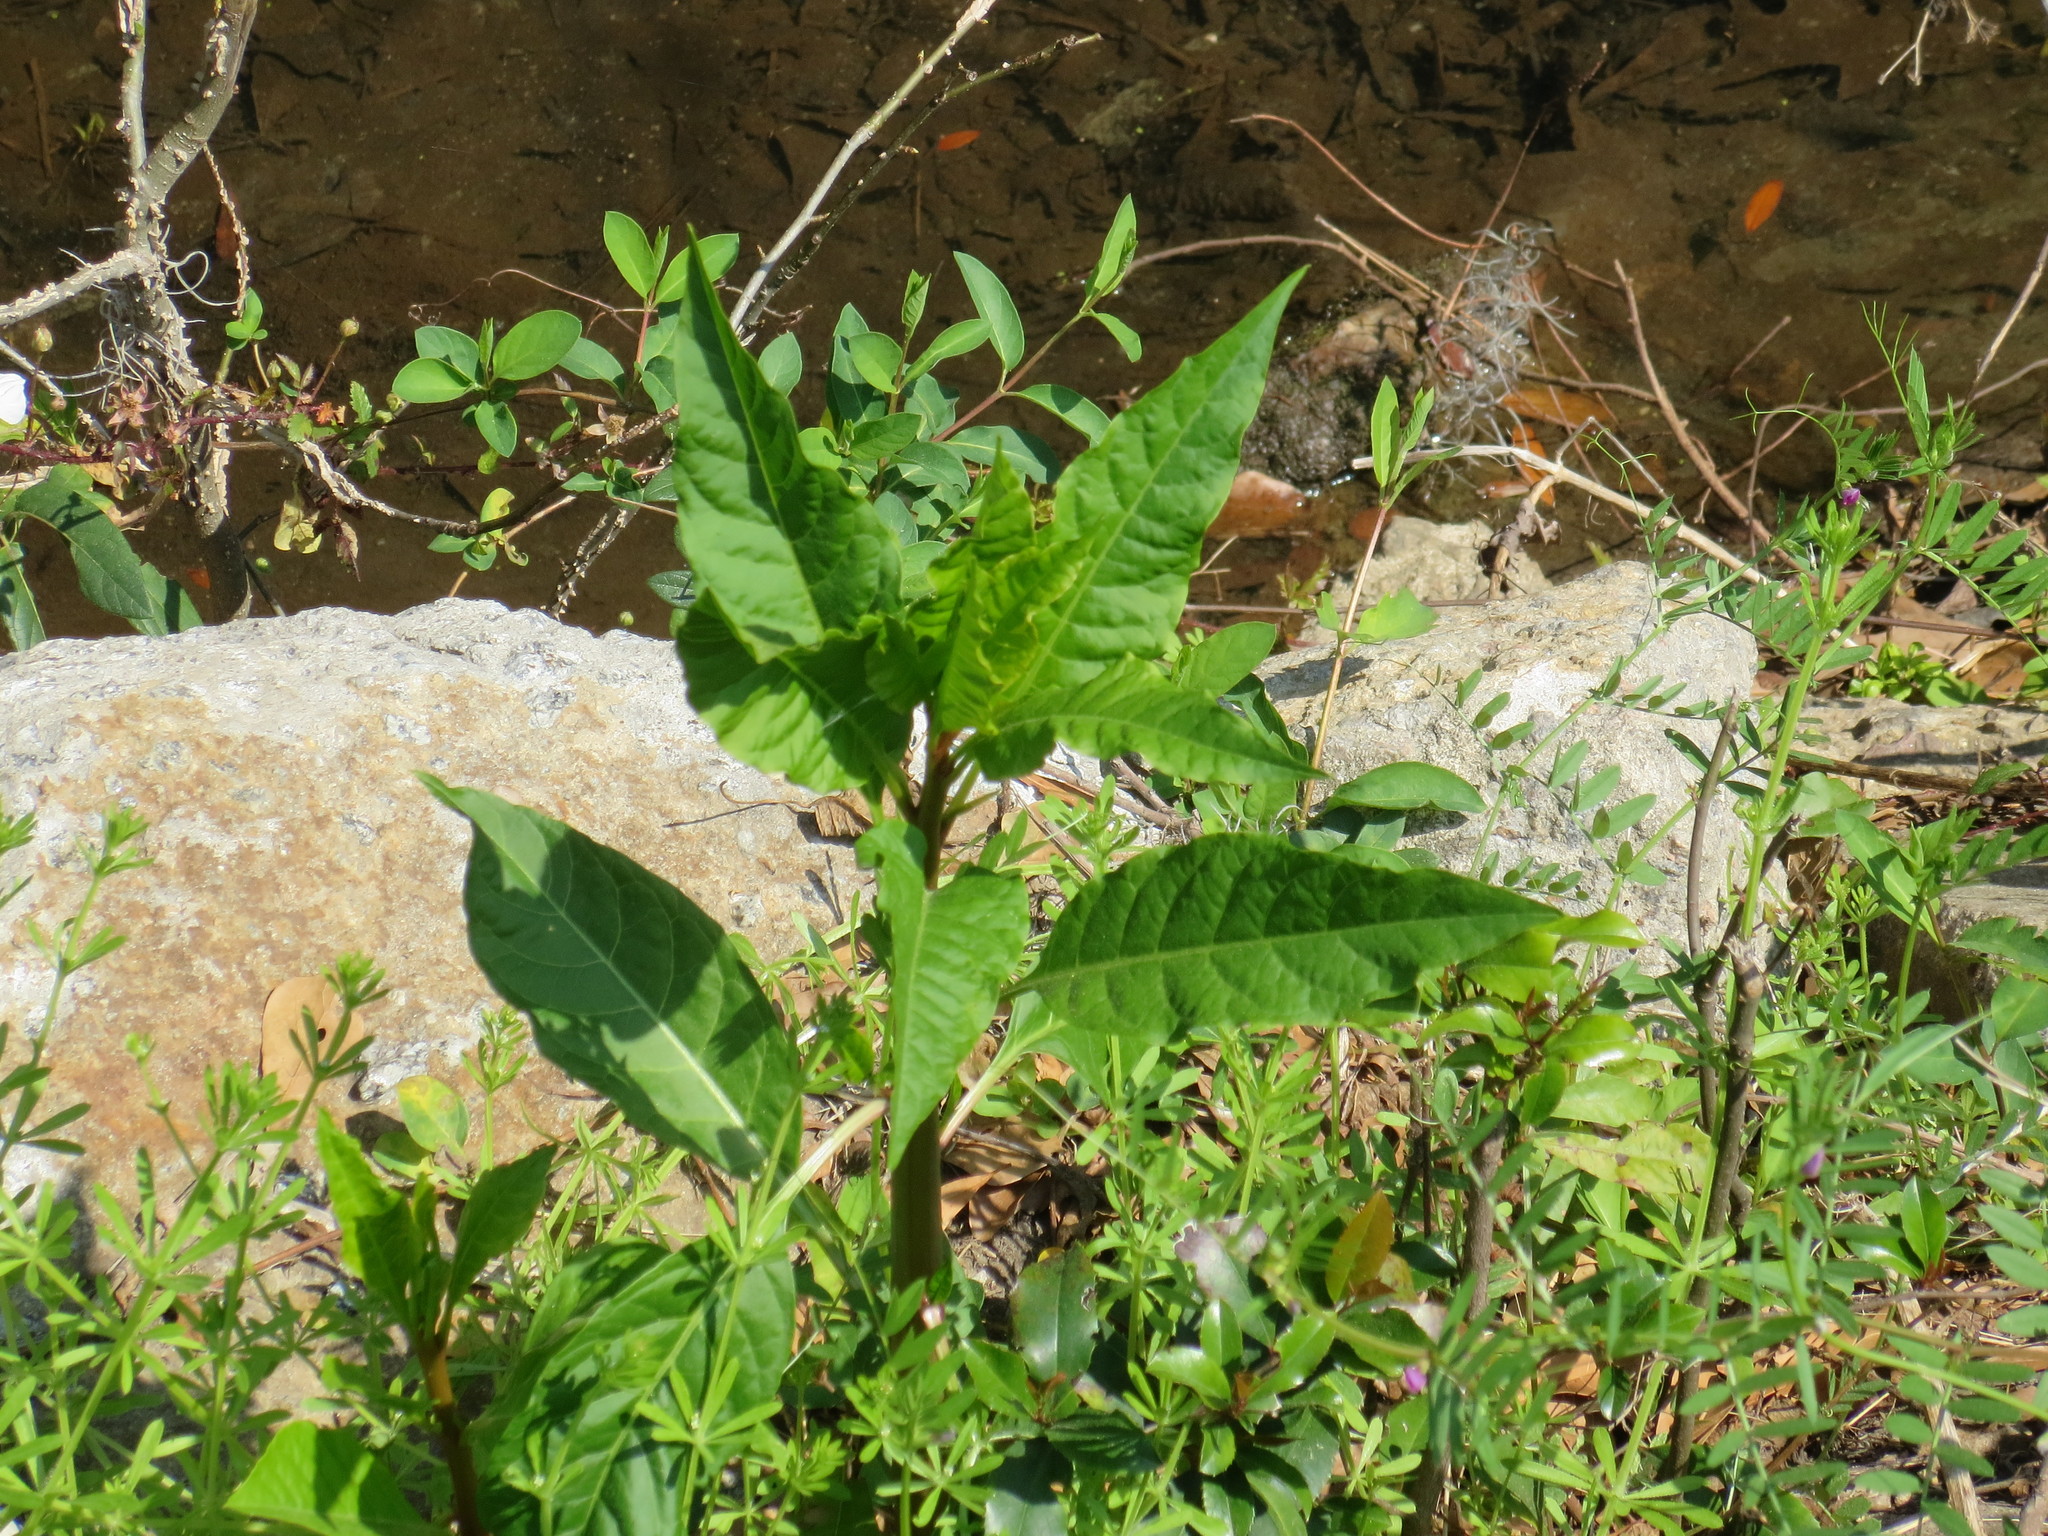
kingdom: Plantae
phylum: Tracheophyta
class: Magnoliopsida
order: Caryophyllales
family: Phytolaccaceae
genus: Phytolacca
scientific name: Phytolacca americana
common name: American pokeweed
